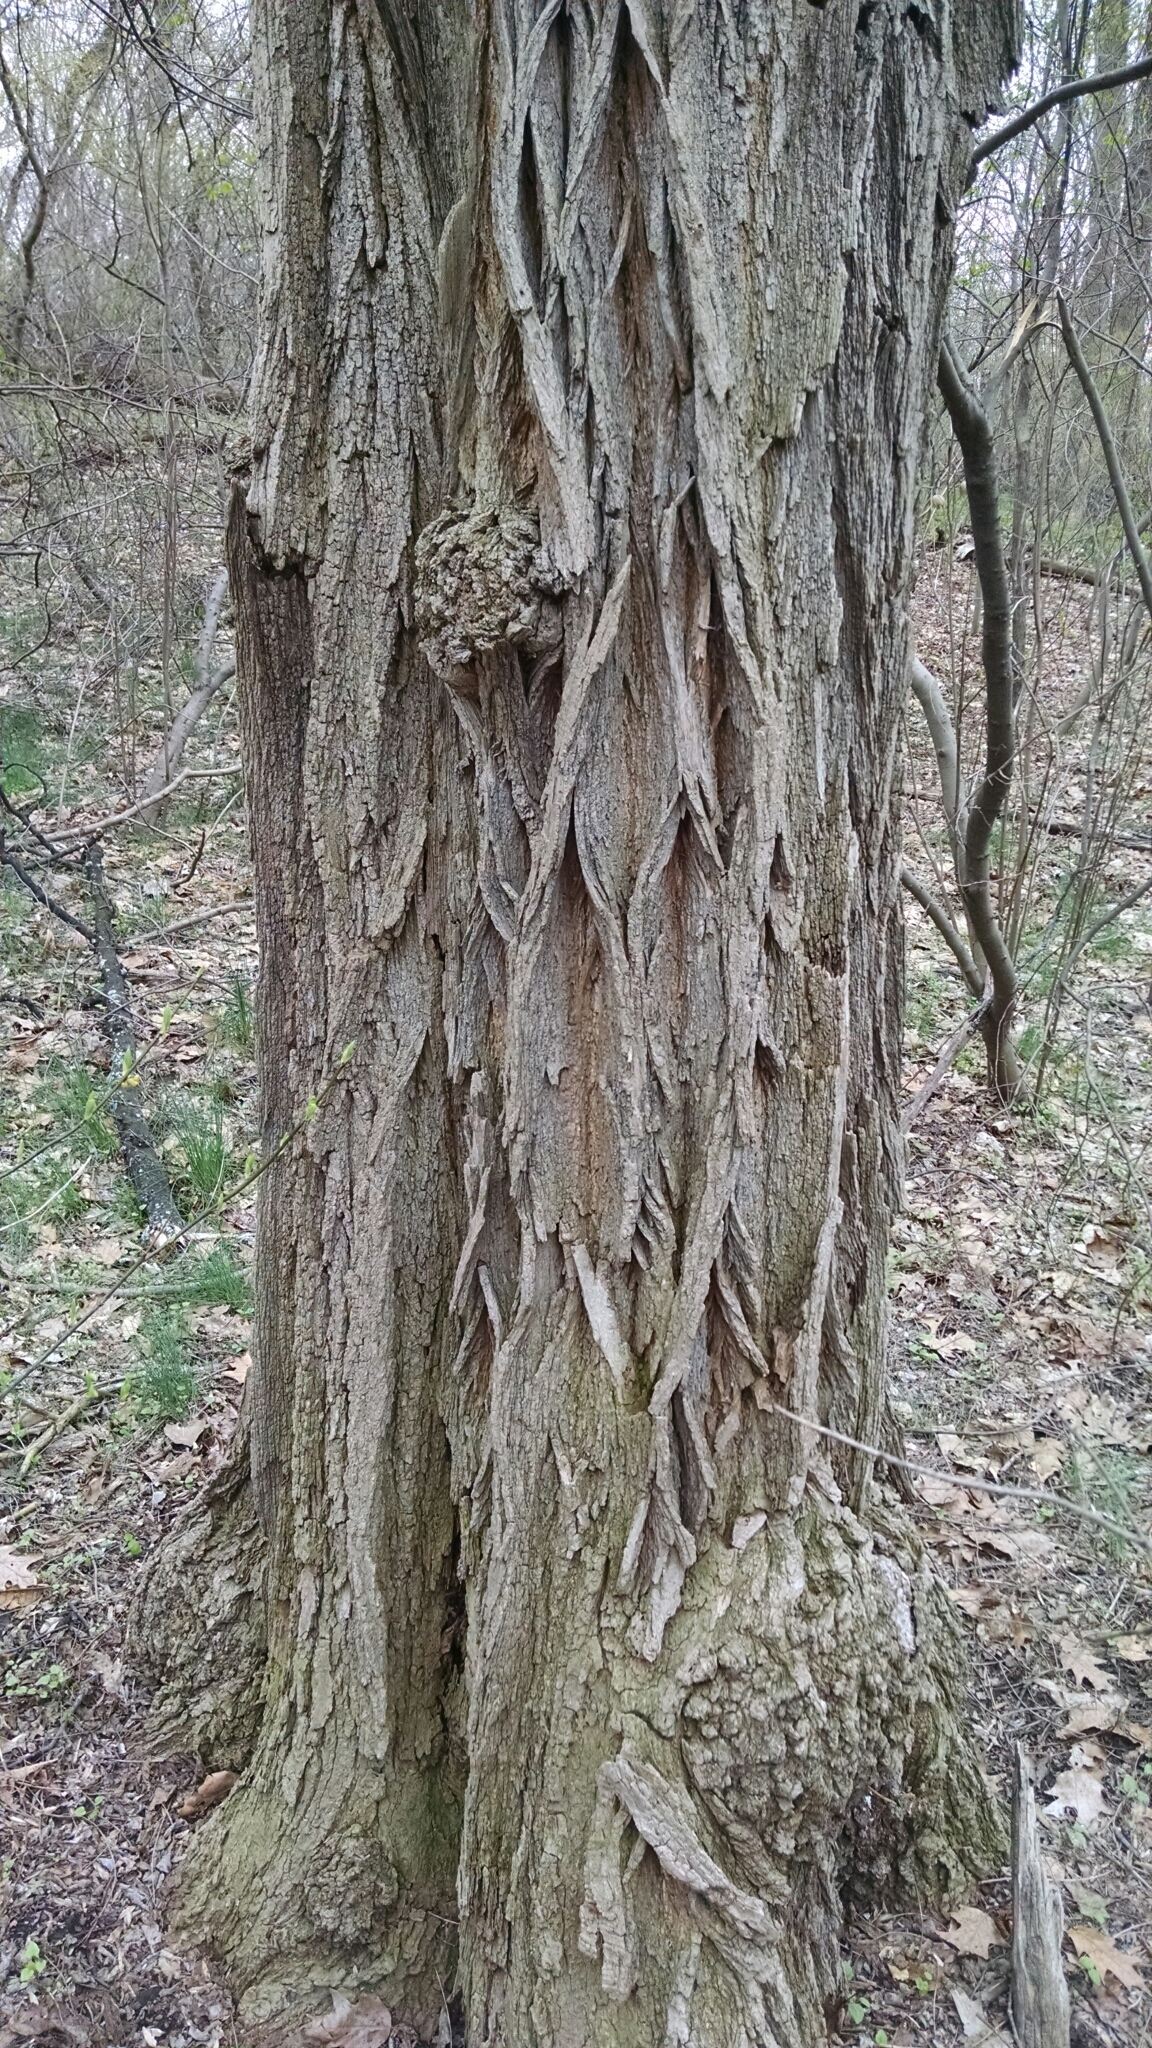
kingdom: Plantae
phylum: Tracheophyta
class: Magnoliopsida
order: Fabales
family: Fabaceae
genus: Robinia
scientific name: Robinia pseudoacacia
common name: Black locust
